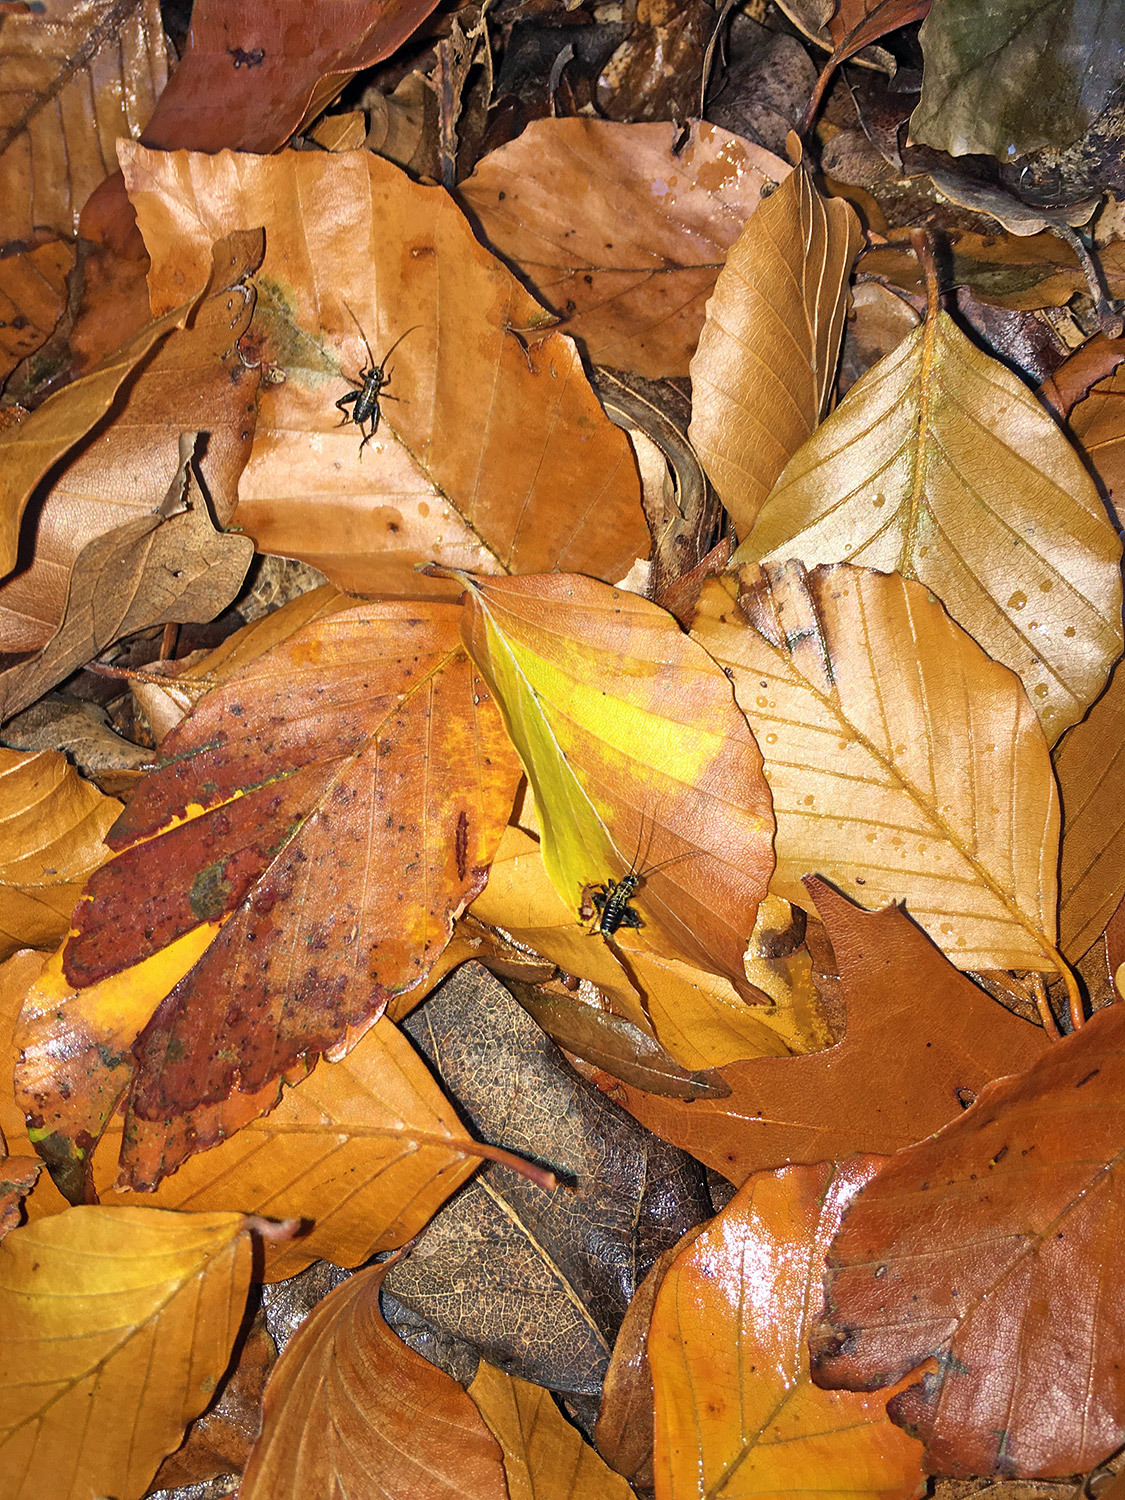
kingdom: Animalia
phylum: Arthropoda
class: Insecta
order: Orthoptera
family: Trigonidiidae
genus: Nemobius
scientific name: Nemobius sylvestris
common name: Wood-cricket
